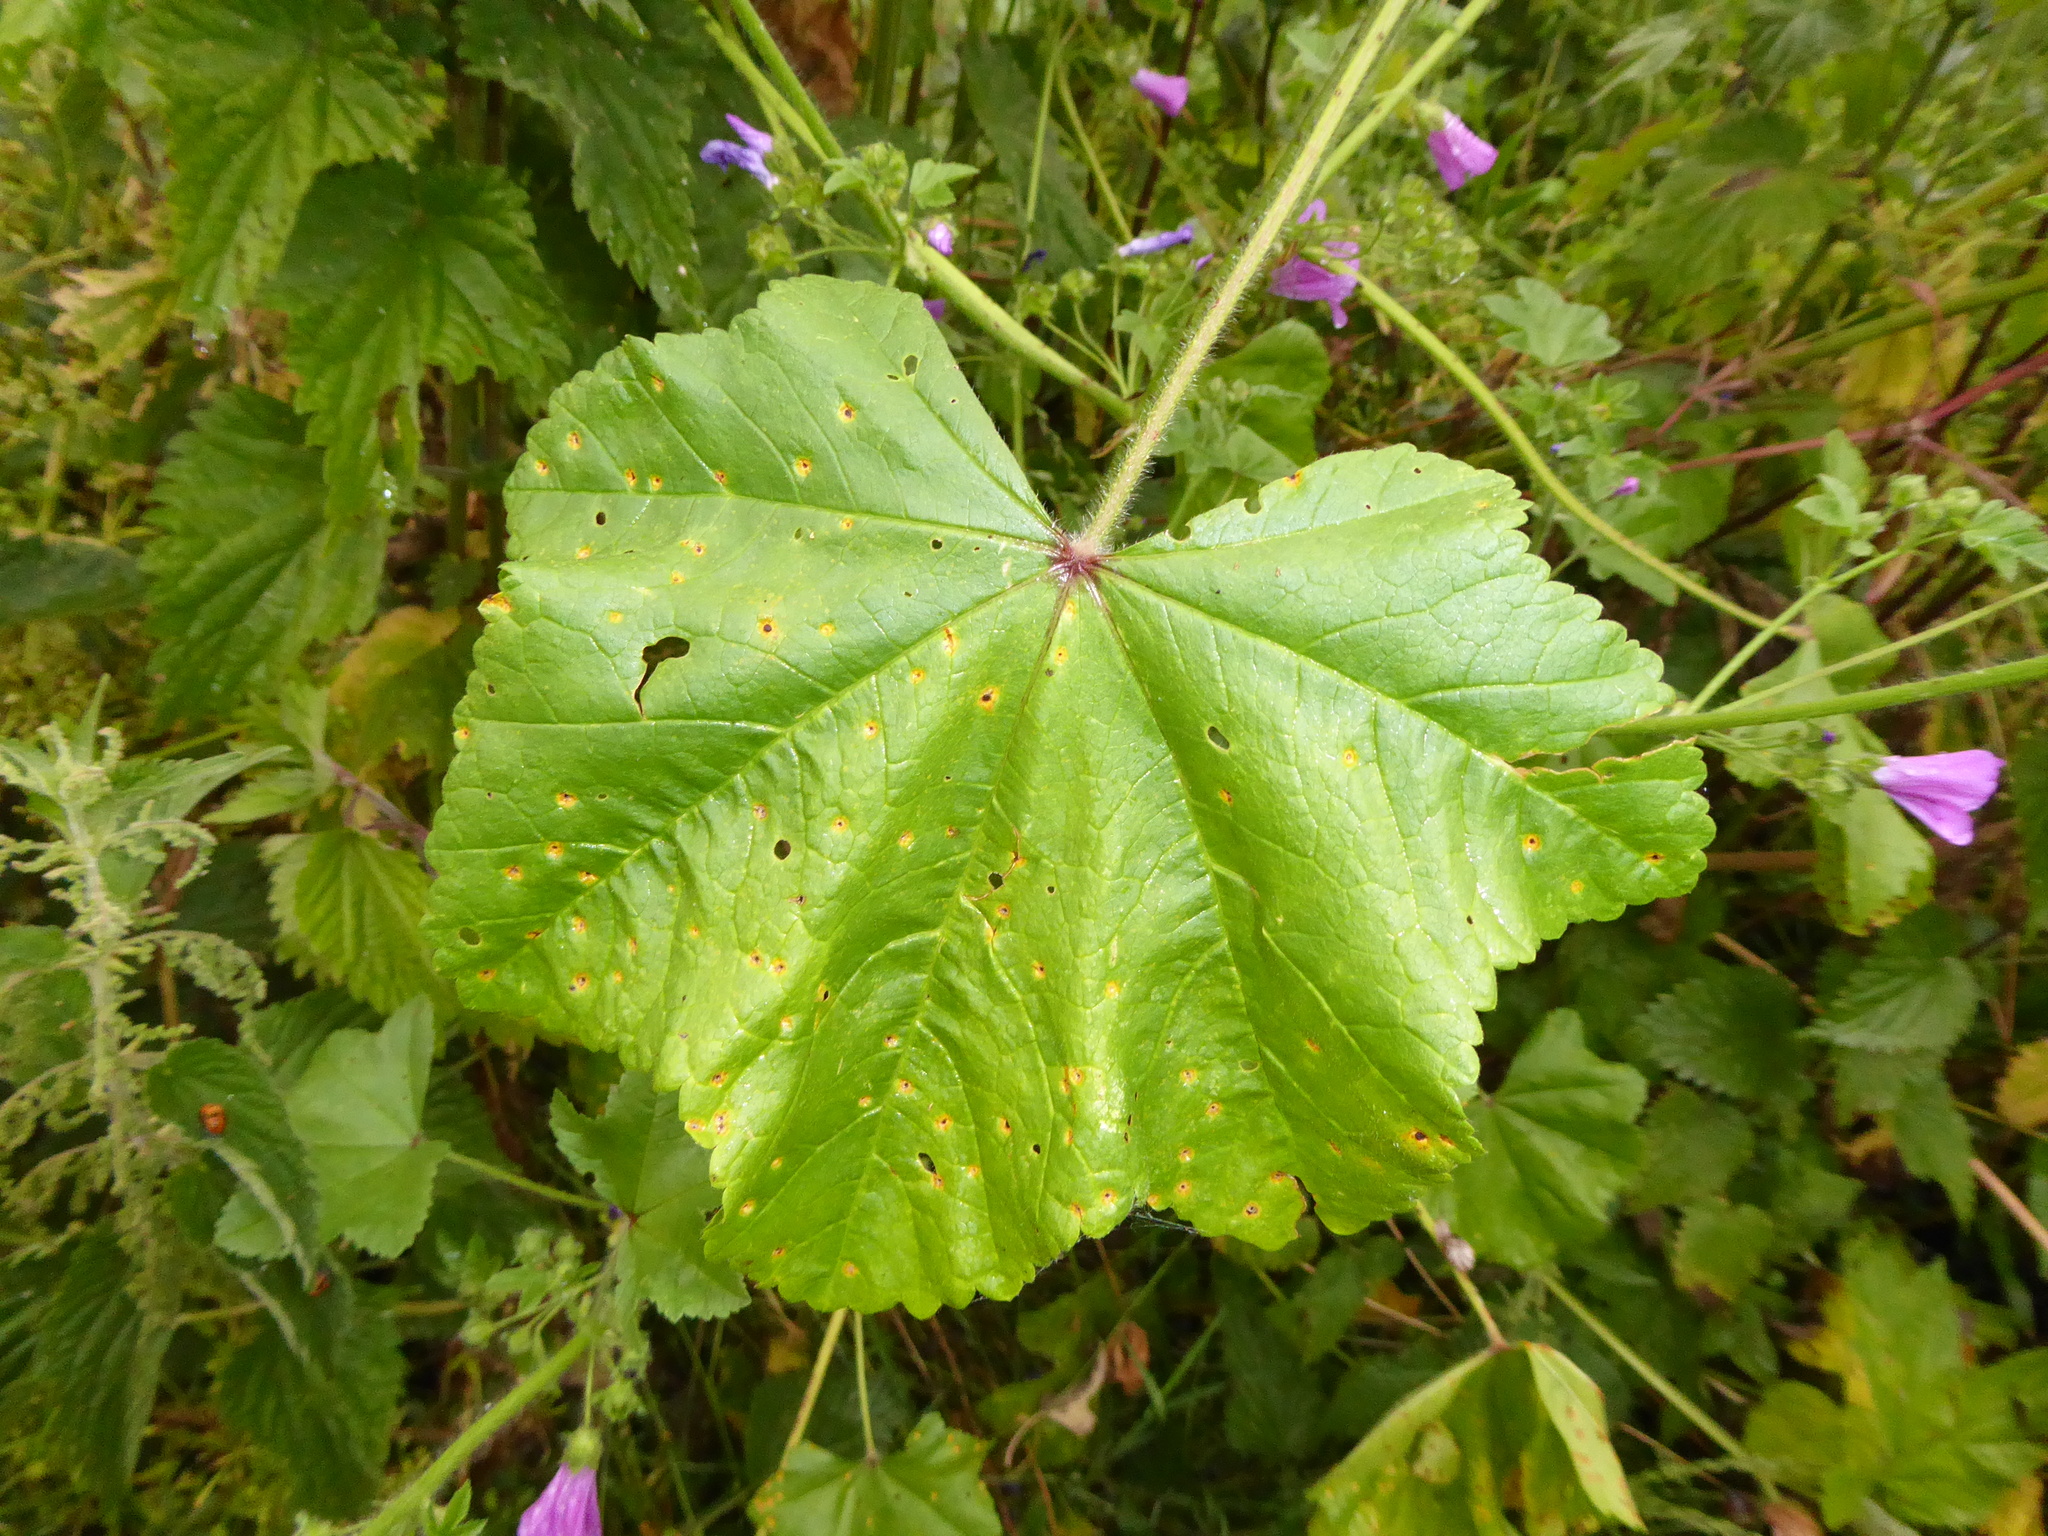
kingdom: Fungi
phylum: Basidiomycota
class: Pucciniomycetes
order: Pucciniales
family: Pucciniaceae
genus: Puccinia
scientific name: Puccinia malvacearum
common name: Hollyhock rust
